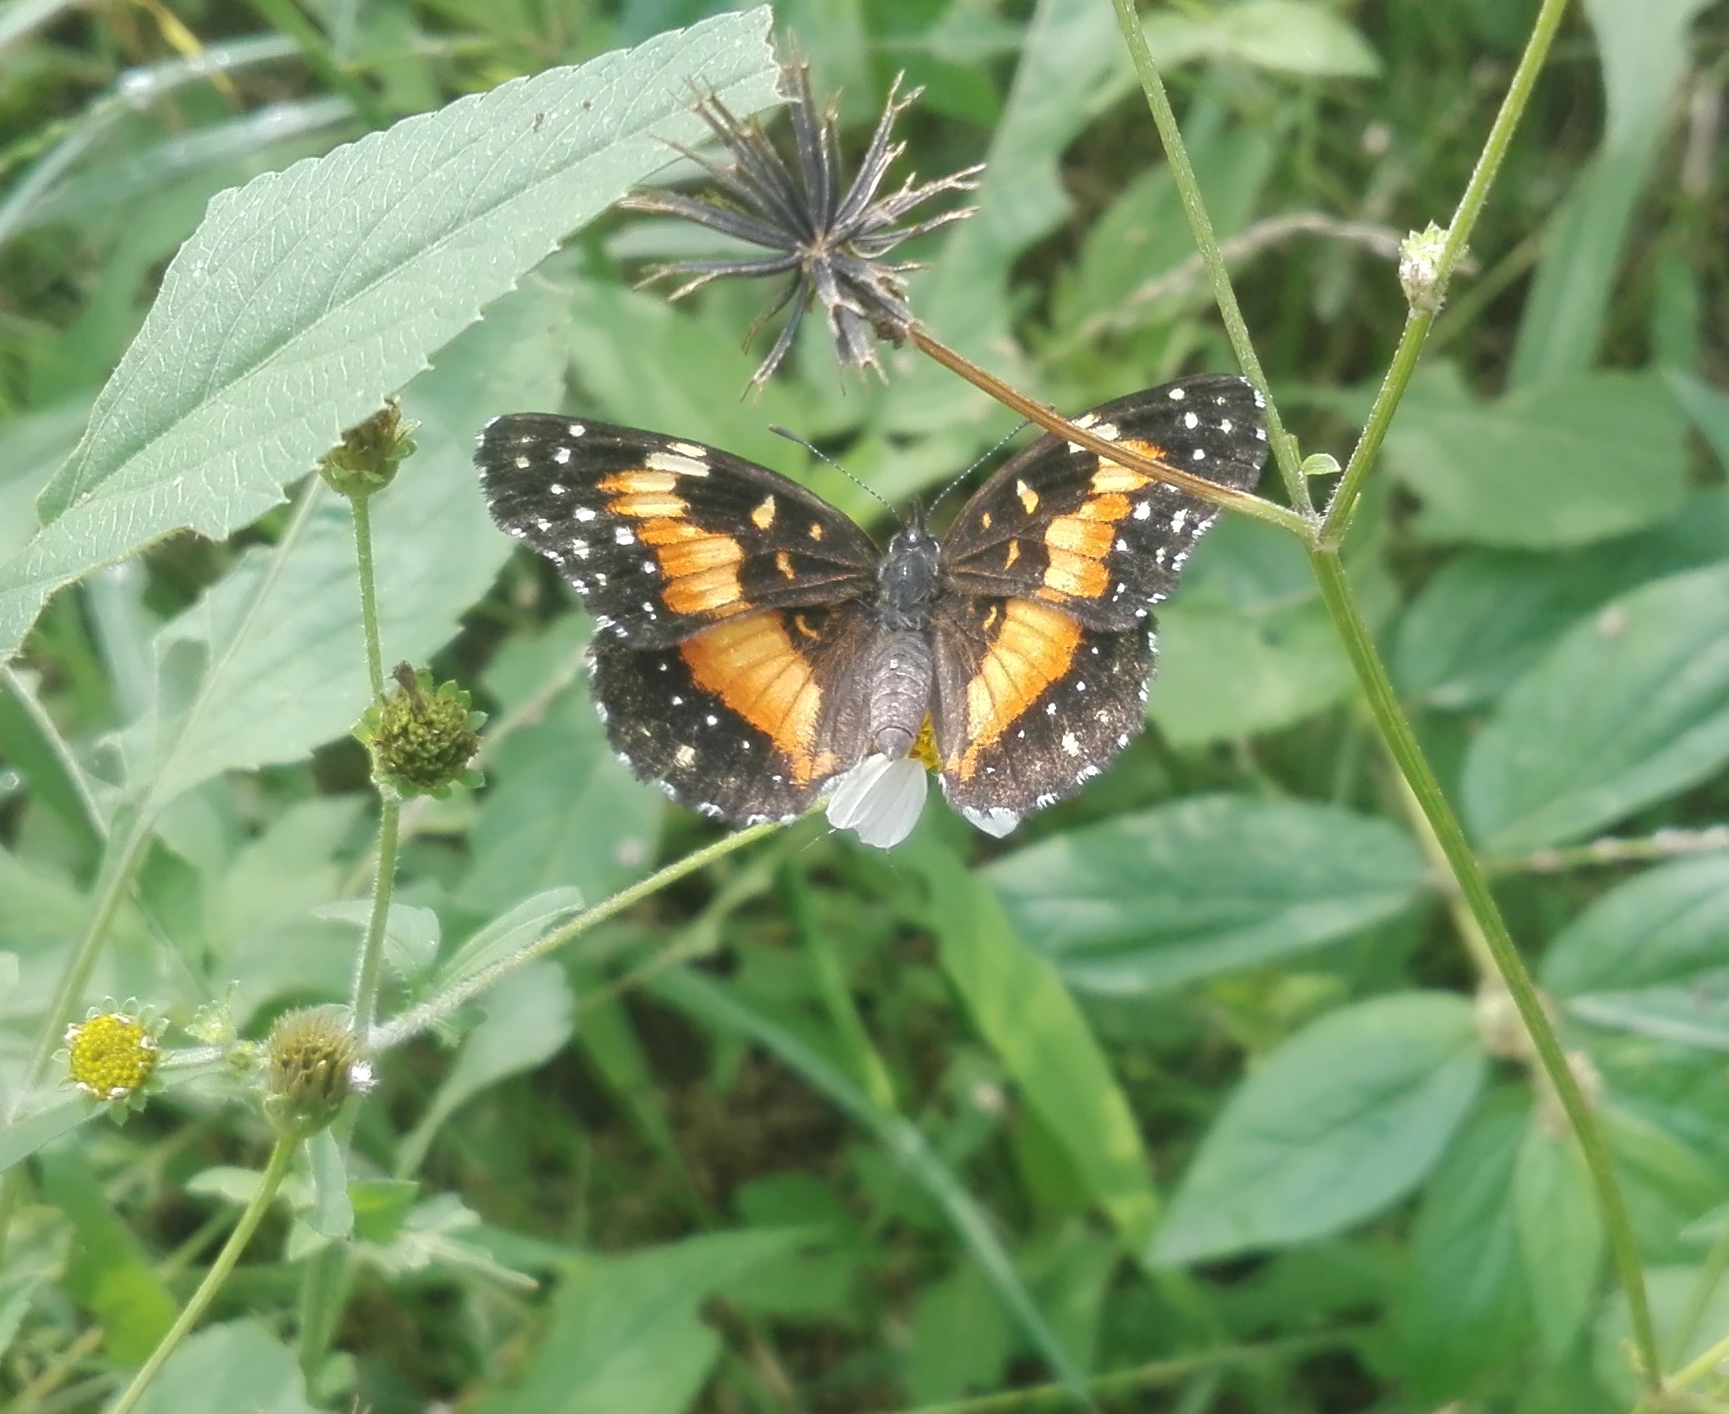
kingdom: Animalia
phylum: Arthropoda
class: Insecta
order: Lepidoptera
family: Nymphalidae
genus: Chlosyne
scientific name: Chlosyne lacinia
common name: Bordered patch
